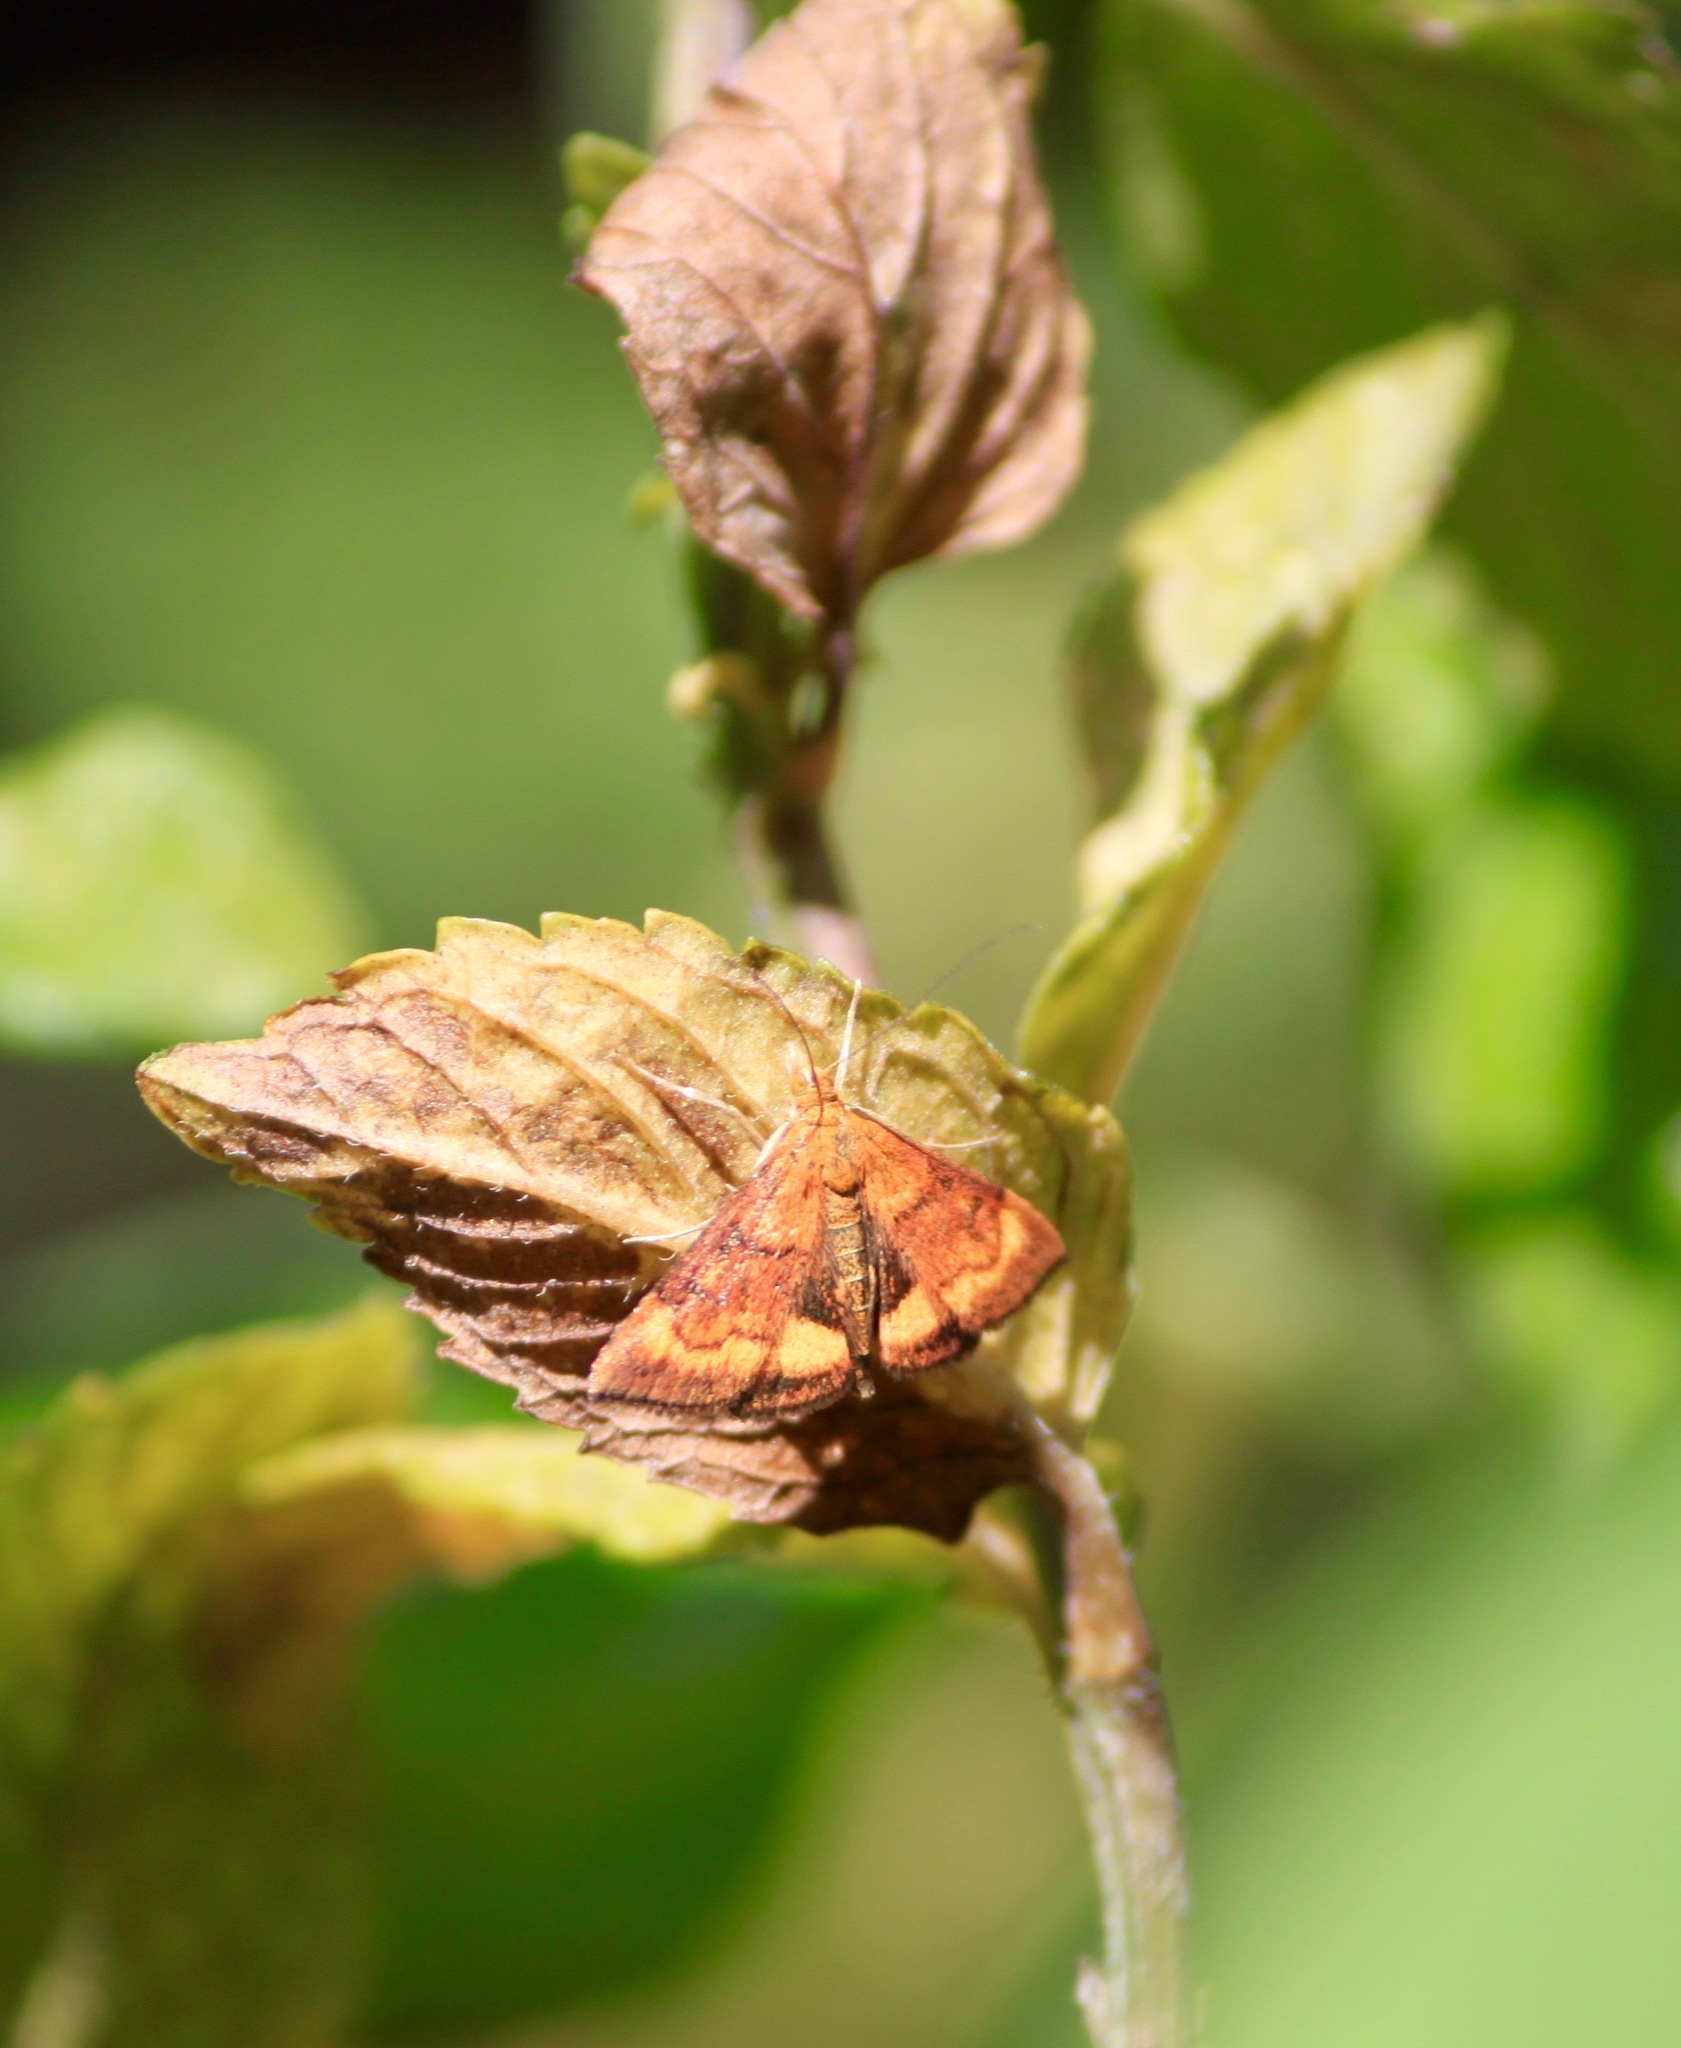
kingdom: Animalia
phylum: Arthropoda
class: Insecta
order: Lepidoptera
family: Crambidae
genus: Pyrausta
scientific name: Pyrausta californicalis
